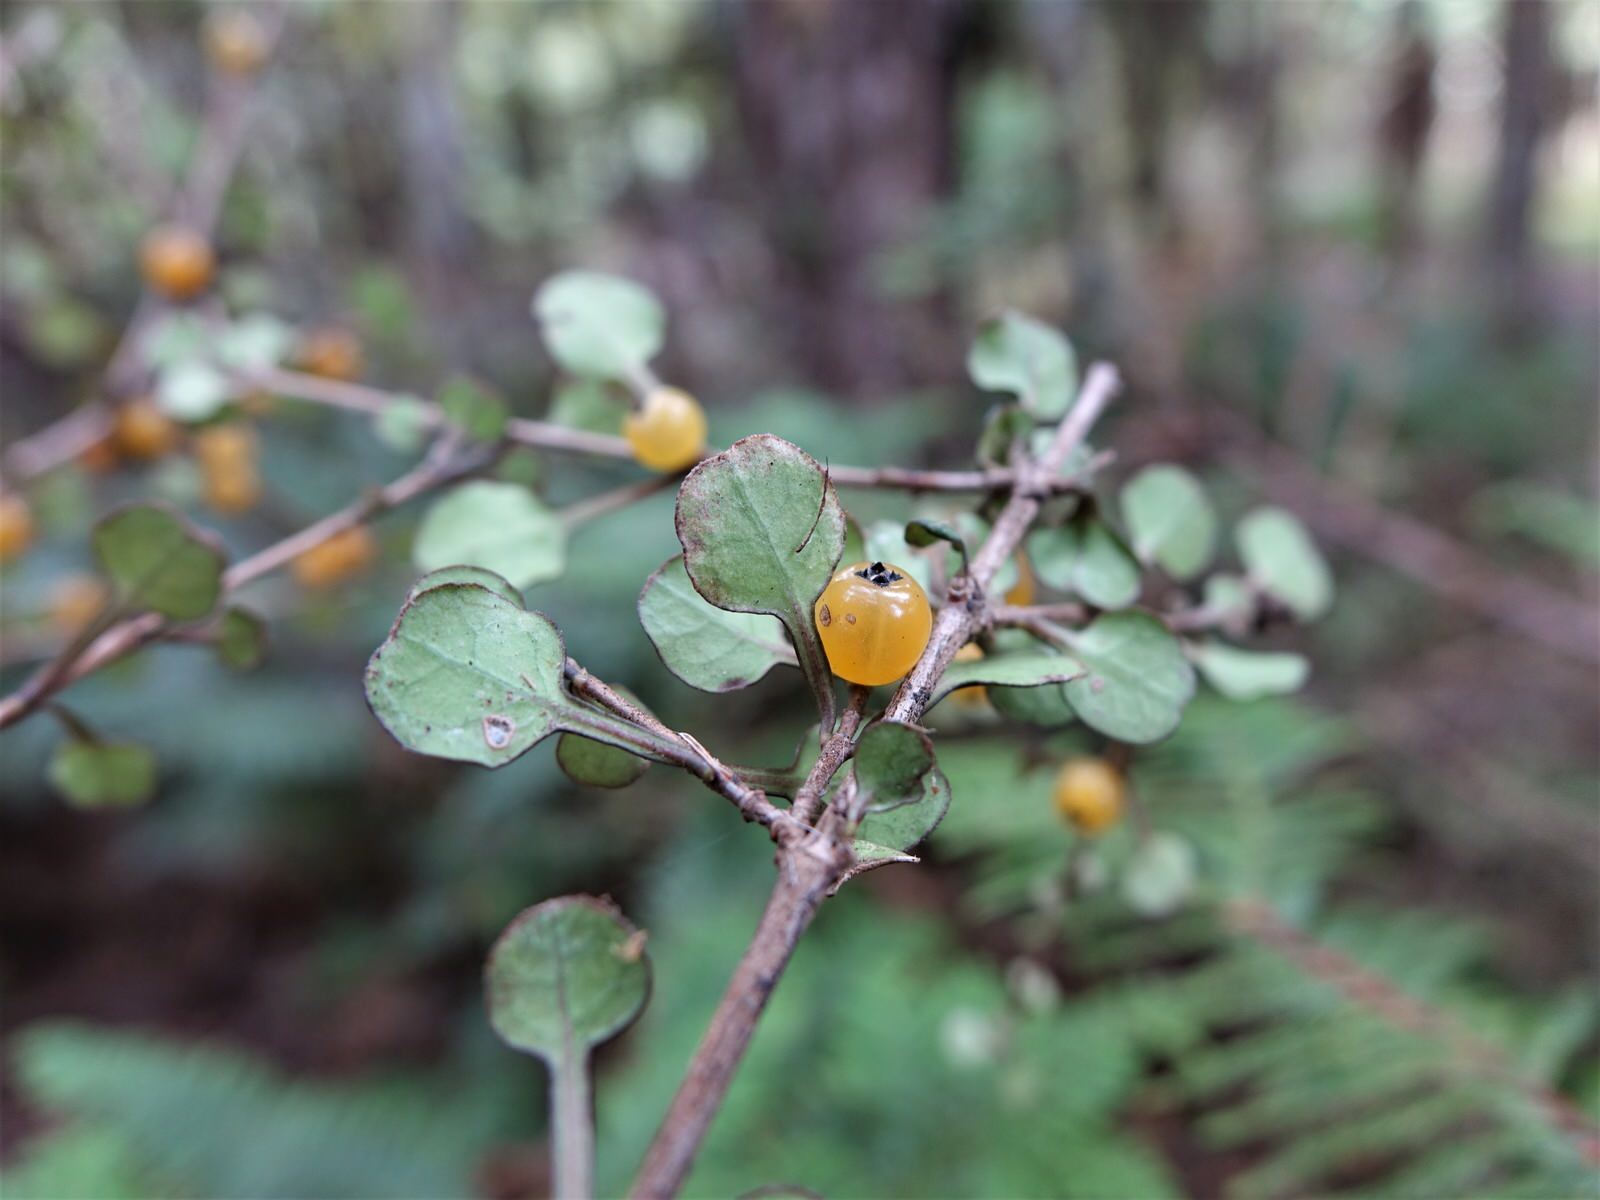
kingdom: Plantae
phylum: Tracheophyta
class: Magnoliopsida
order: Gentianales
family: Rubiaceae
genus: Coprosma
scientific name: Coprosma spathulata
